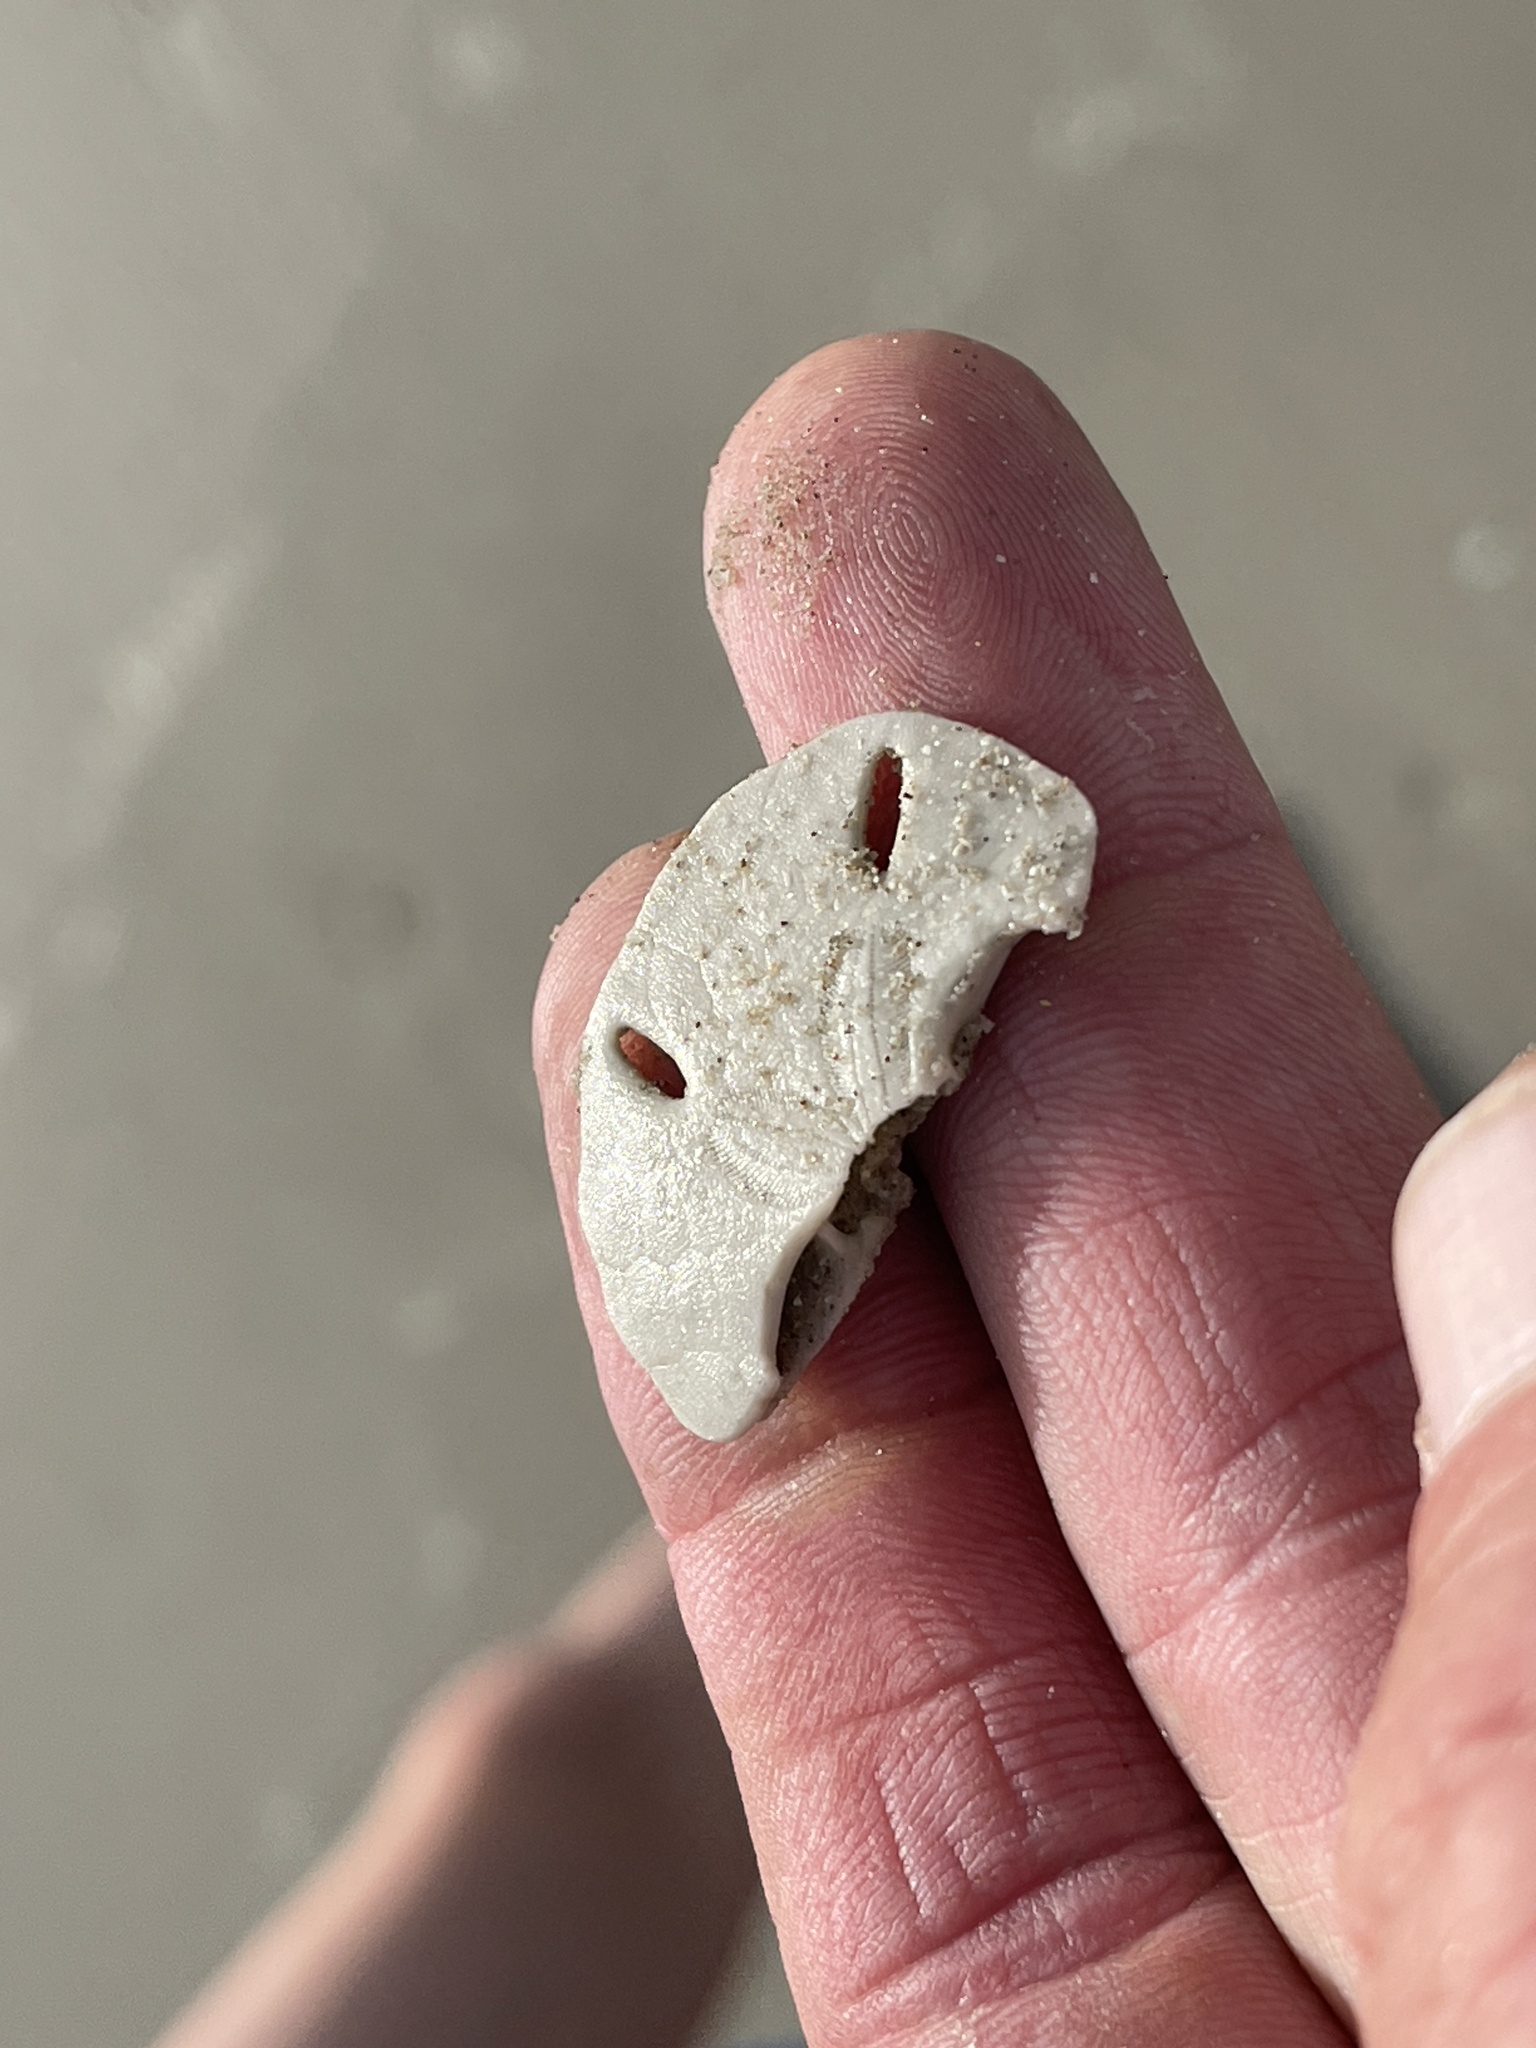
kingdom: Animalia
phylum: Echinodermata
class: Echinoidea
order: Echinolampadacea
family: Mellitidae
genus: Mellita
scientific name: Mellita quinquiesperforata
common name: Sand dollar
